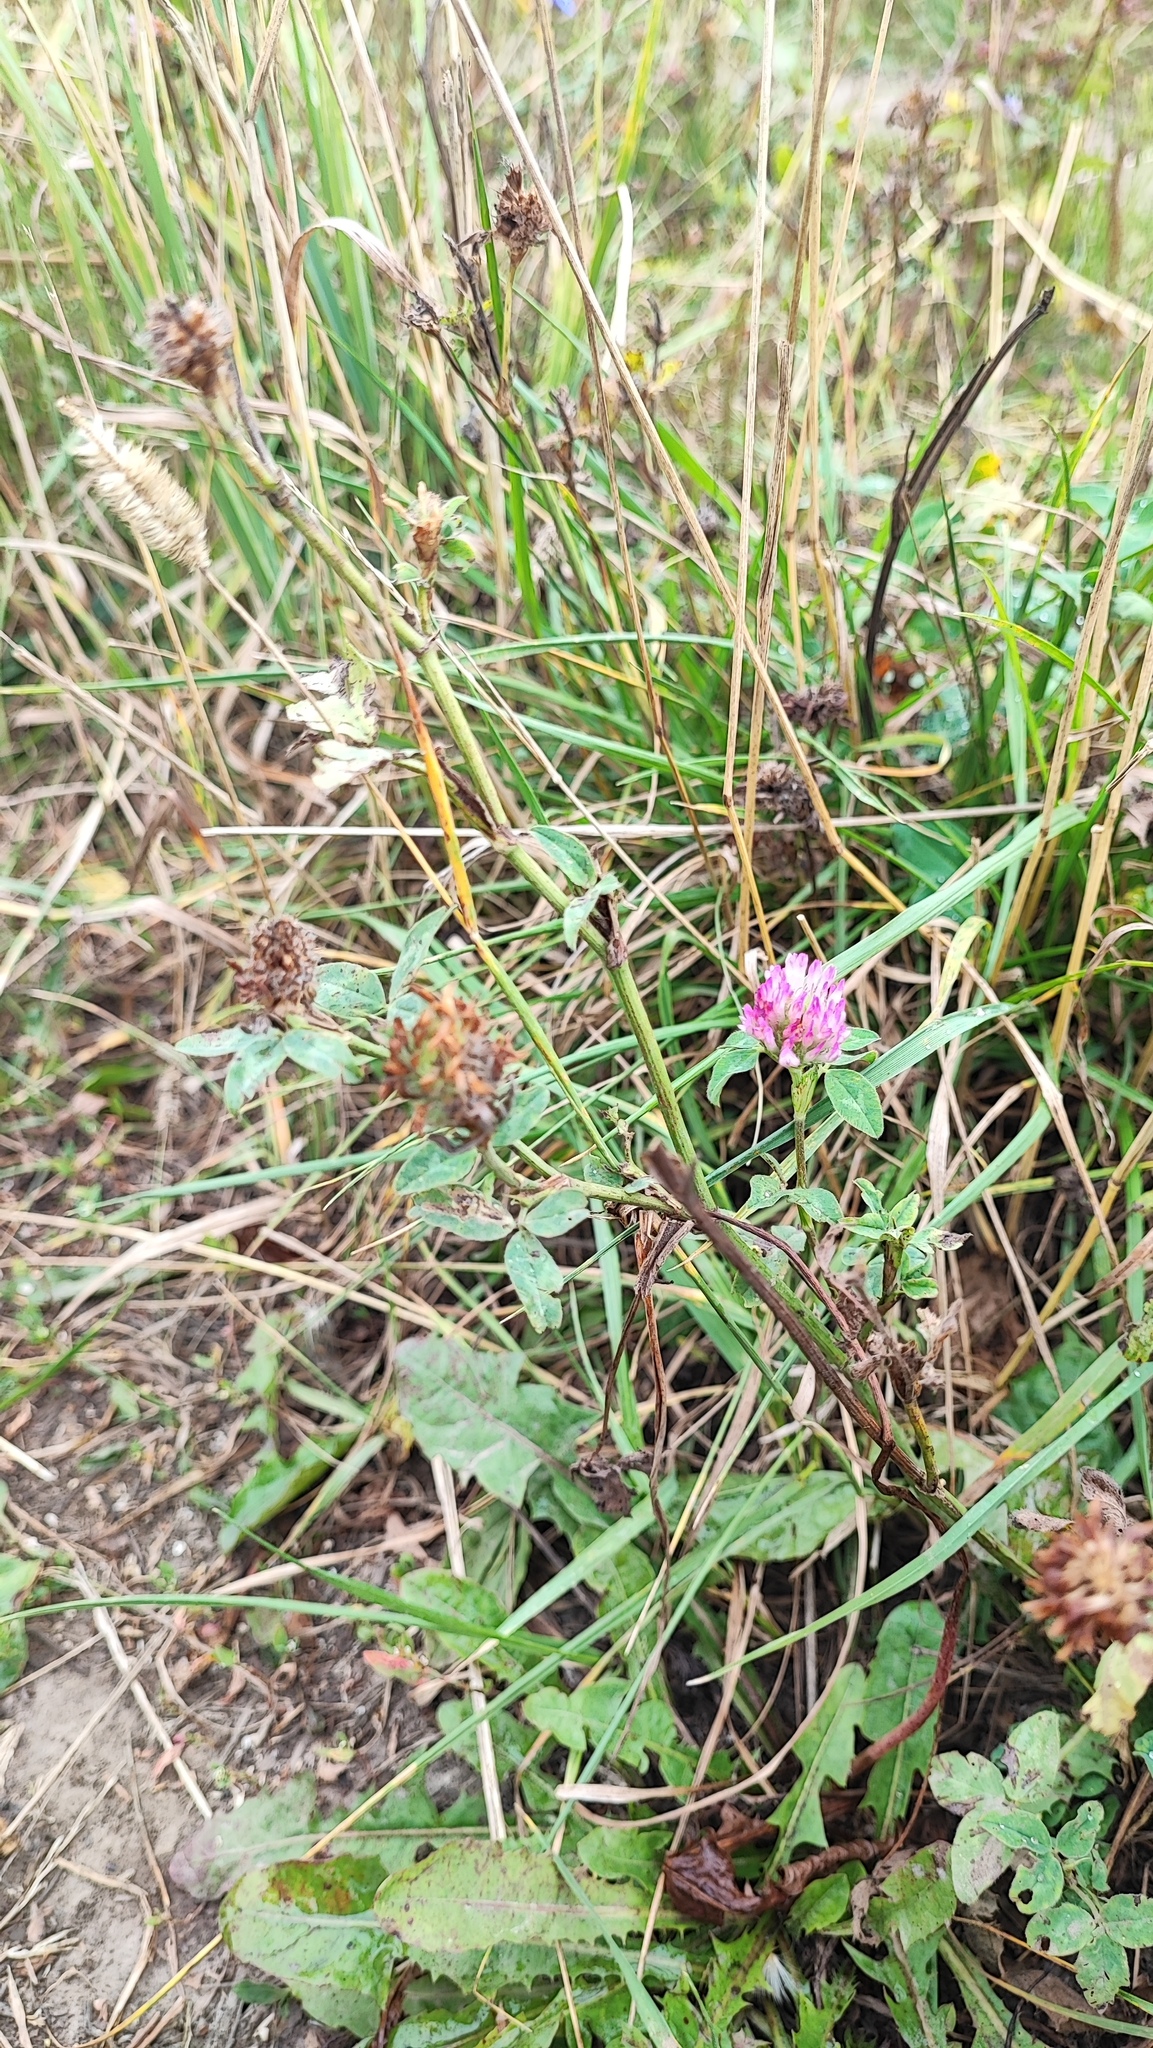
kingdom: Plantae
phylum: Tracheophyta
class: Magnoliopsida
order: Fabales
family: Fabaceae
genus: Trifolium
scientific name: Trifolium pratense
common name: Red clover
